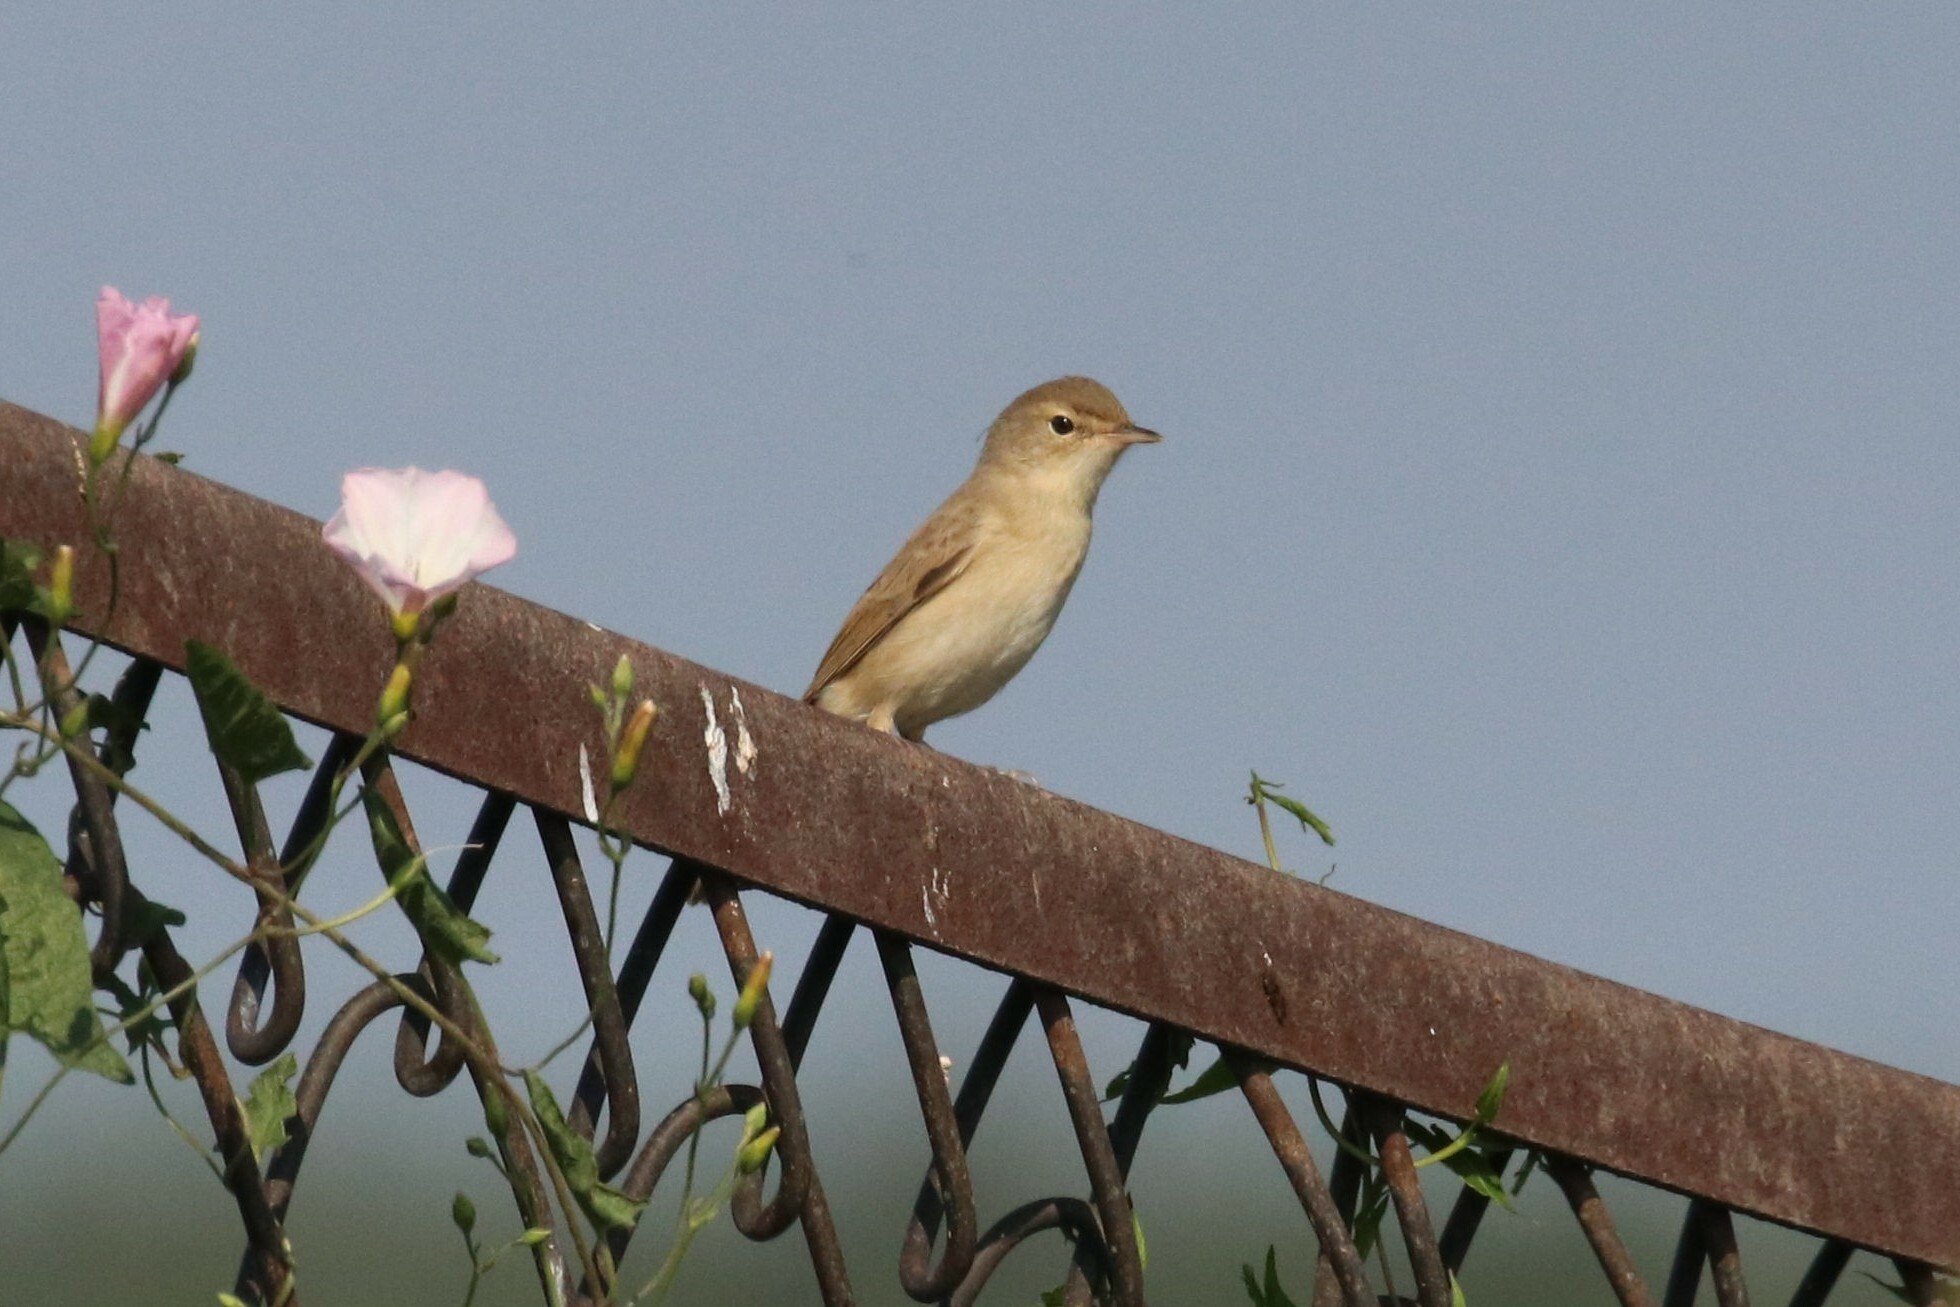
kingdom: Animalia
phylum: Chordata
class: Aves
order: Passeriformes
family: Acrocephalidae
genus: Iduna
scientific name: Iduna caligata
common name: Booted warbler
